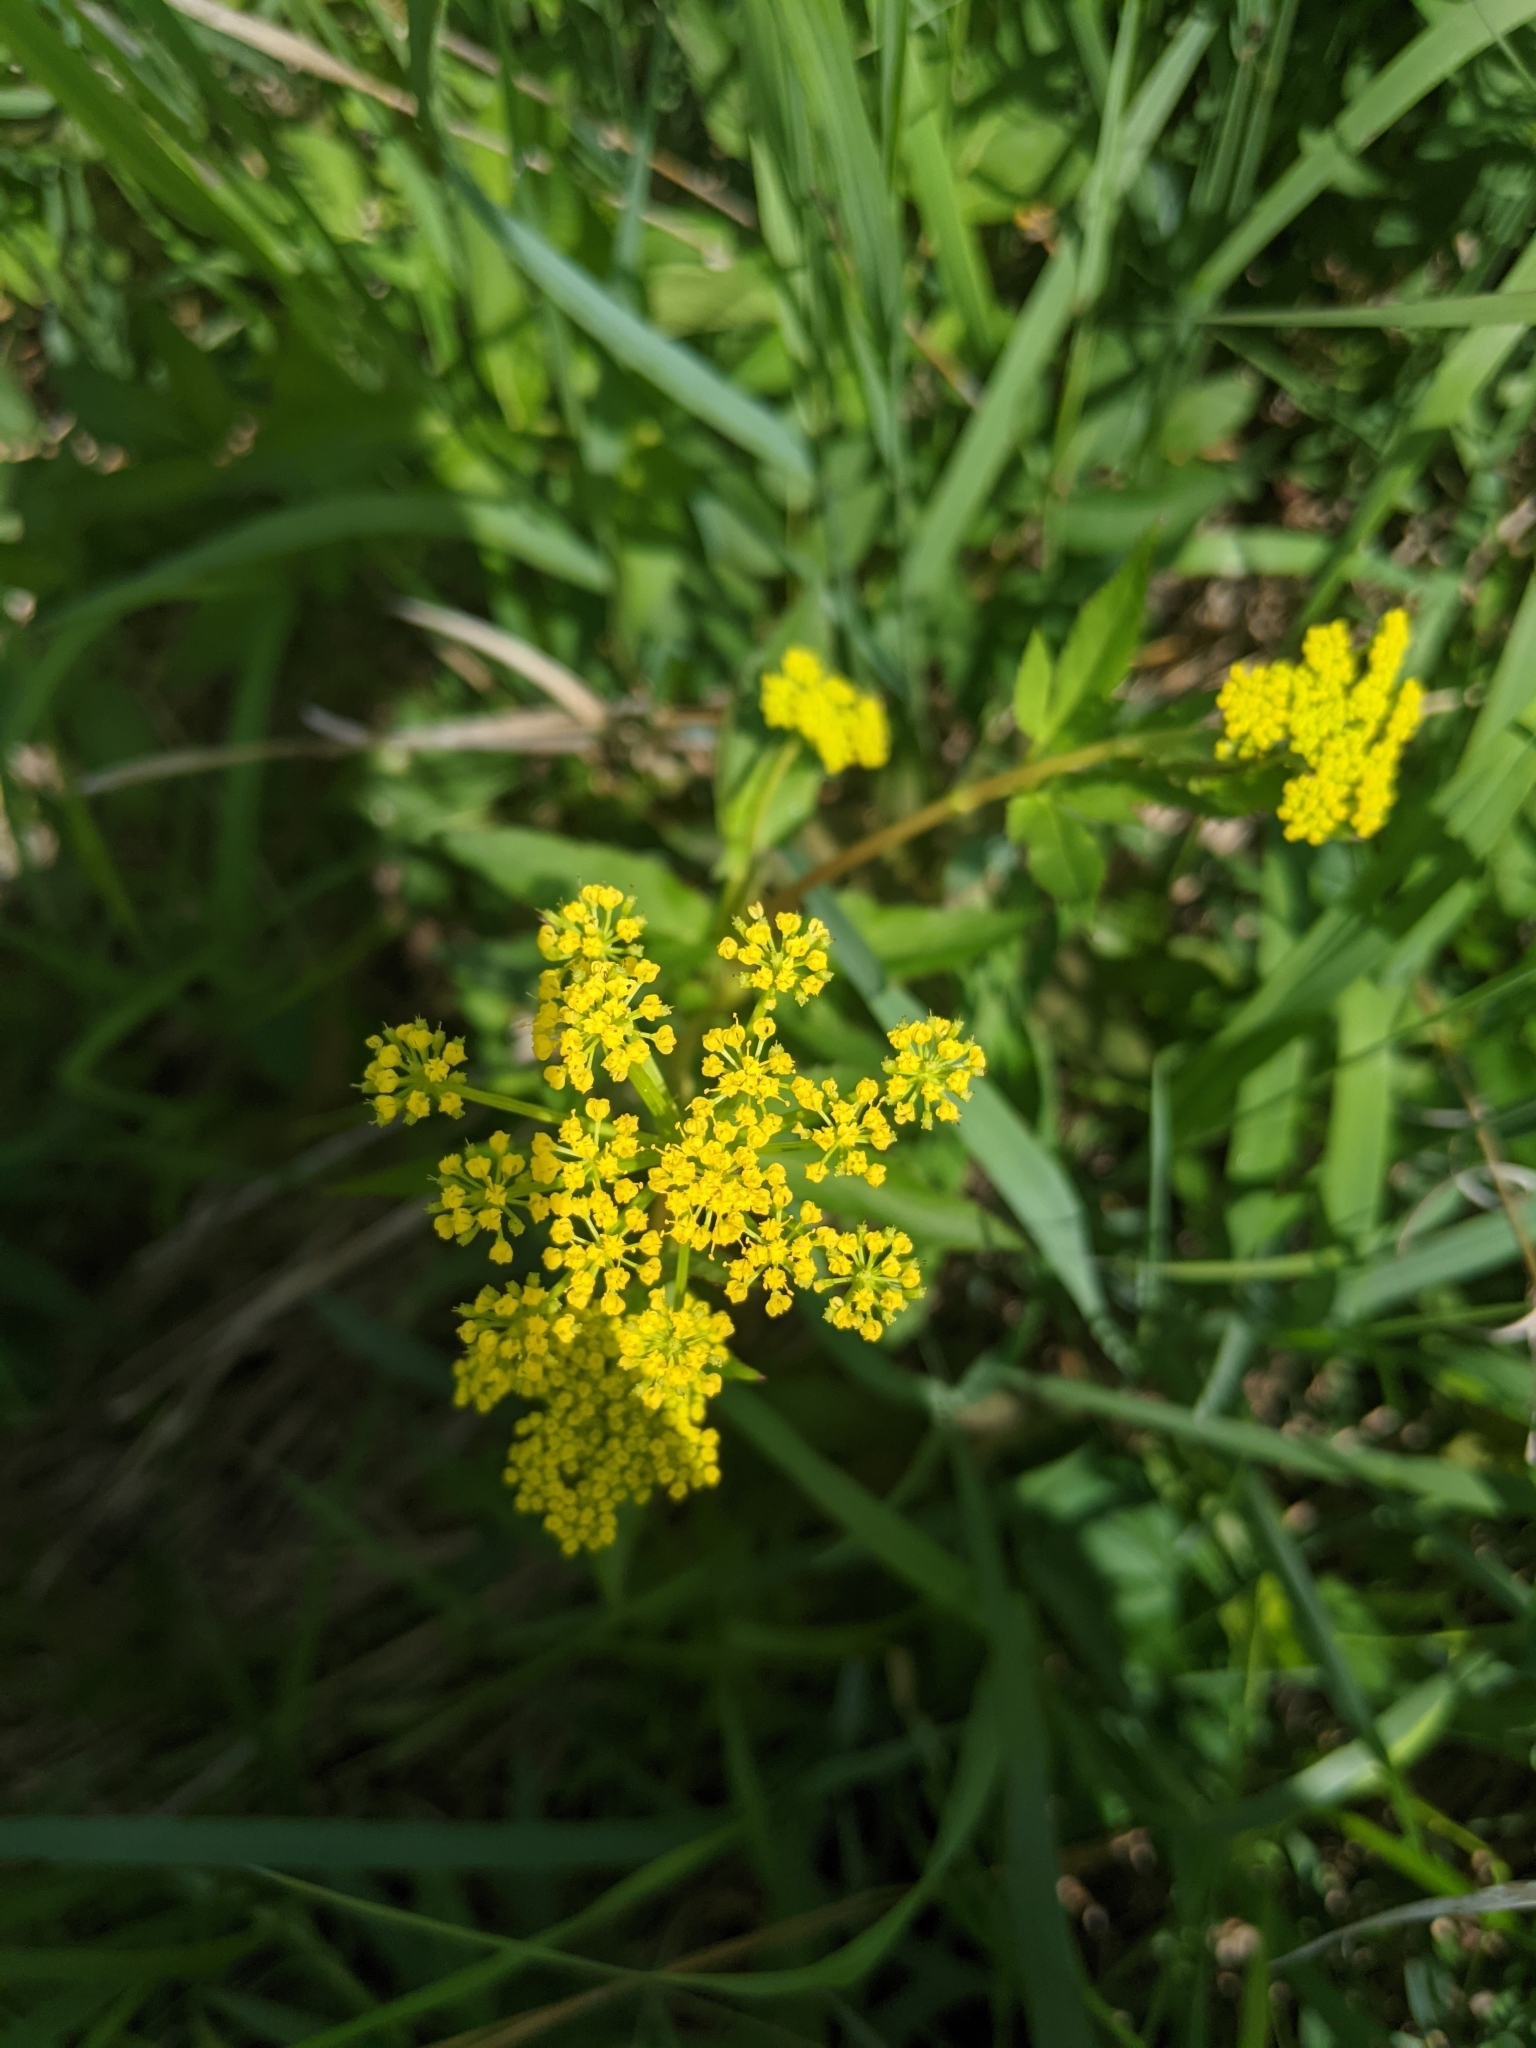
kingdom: Plantae
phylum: Tracheophyta
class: Magnoliopsida
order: Apiales
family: Apiaceae
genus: Zizia
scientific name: Zizia aurea
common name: Golden alexanders
